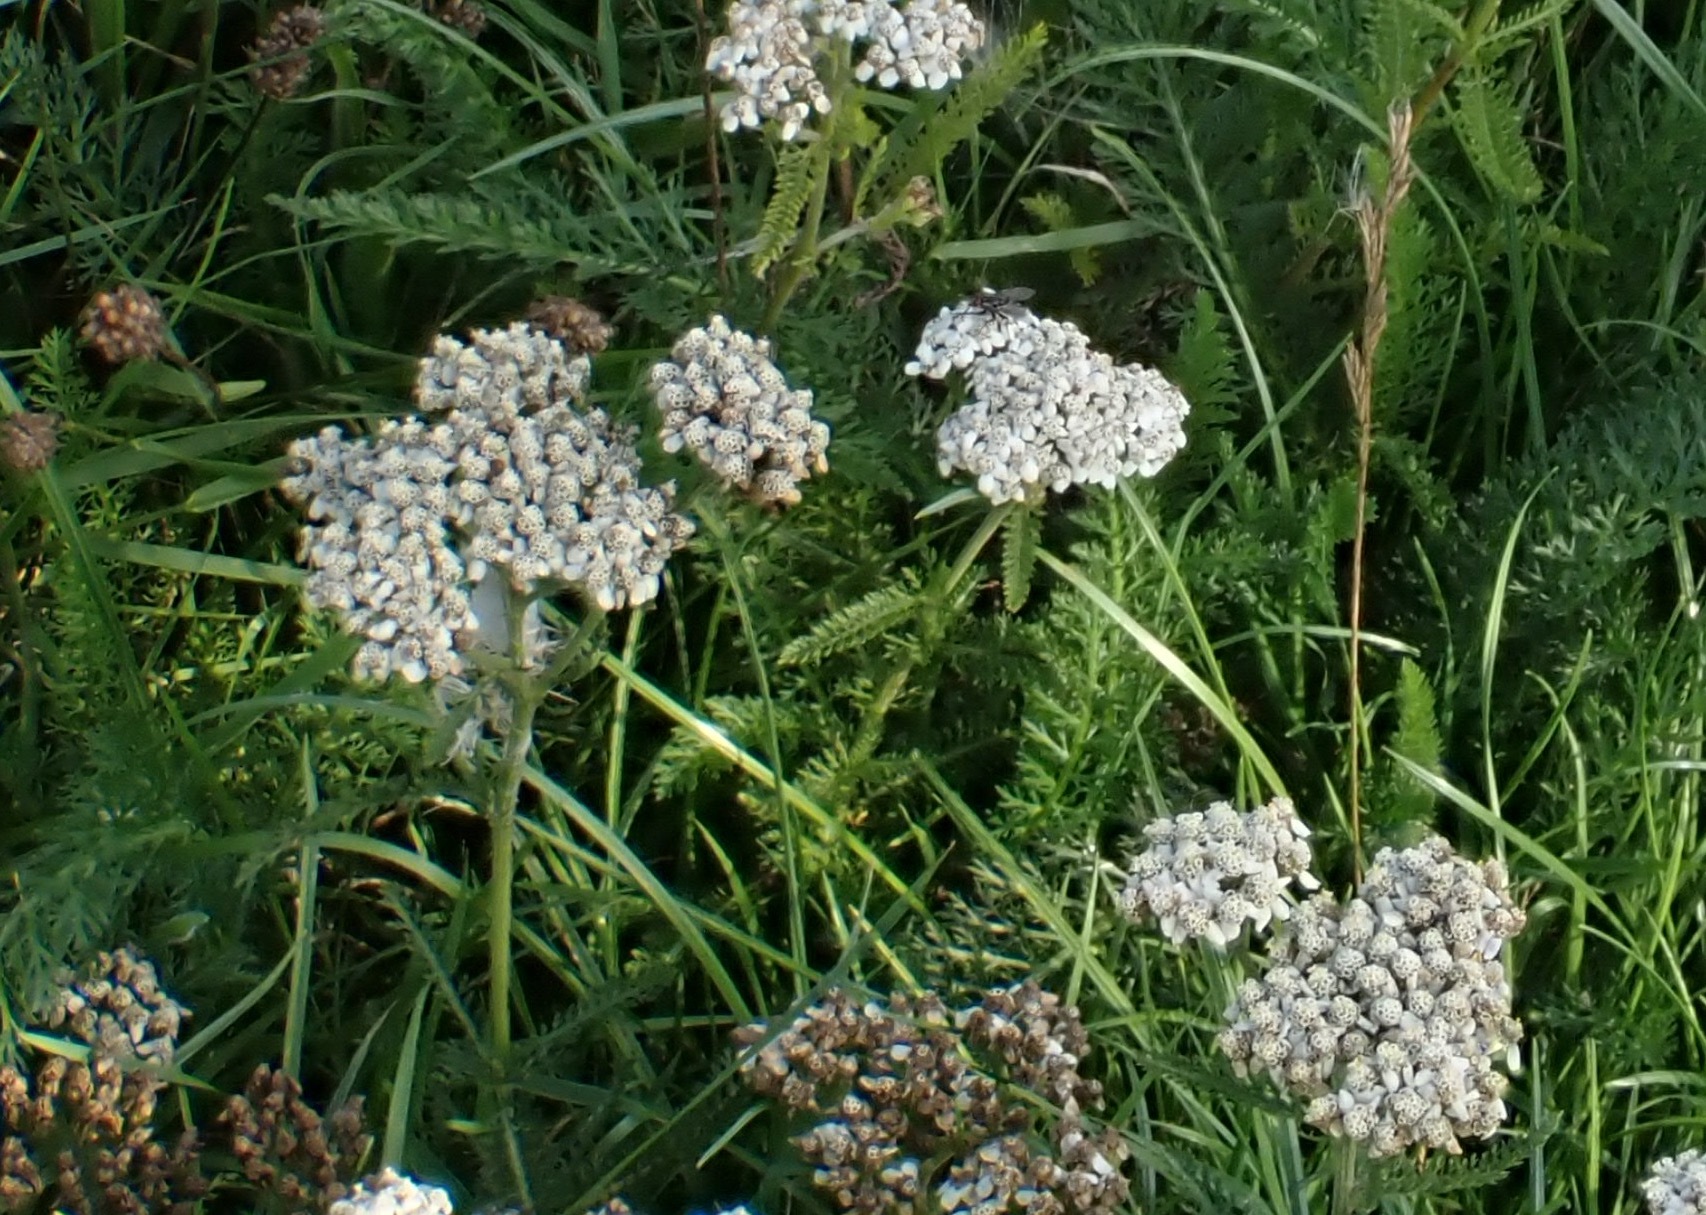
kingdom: Plantae
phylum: Tracheophyta
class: Magnoliopsida
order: Asterales
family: Asteraceae
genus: Achillea
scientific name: Achillea millefolium
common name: Yarrow
